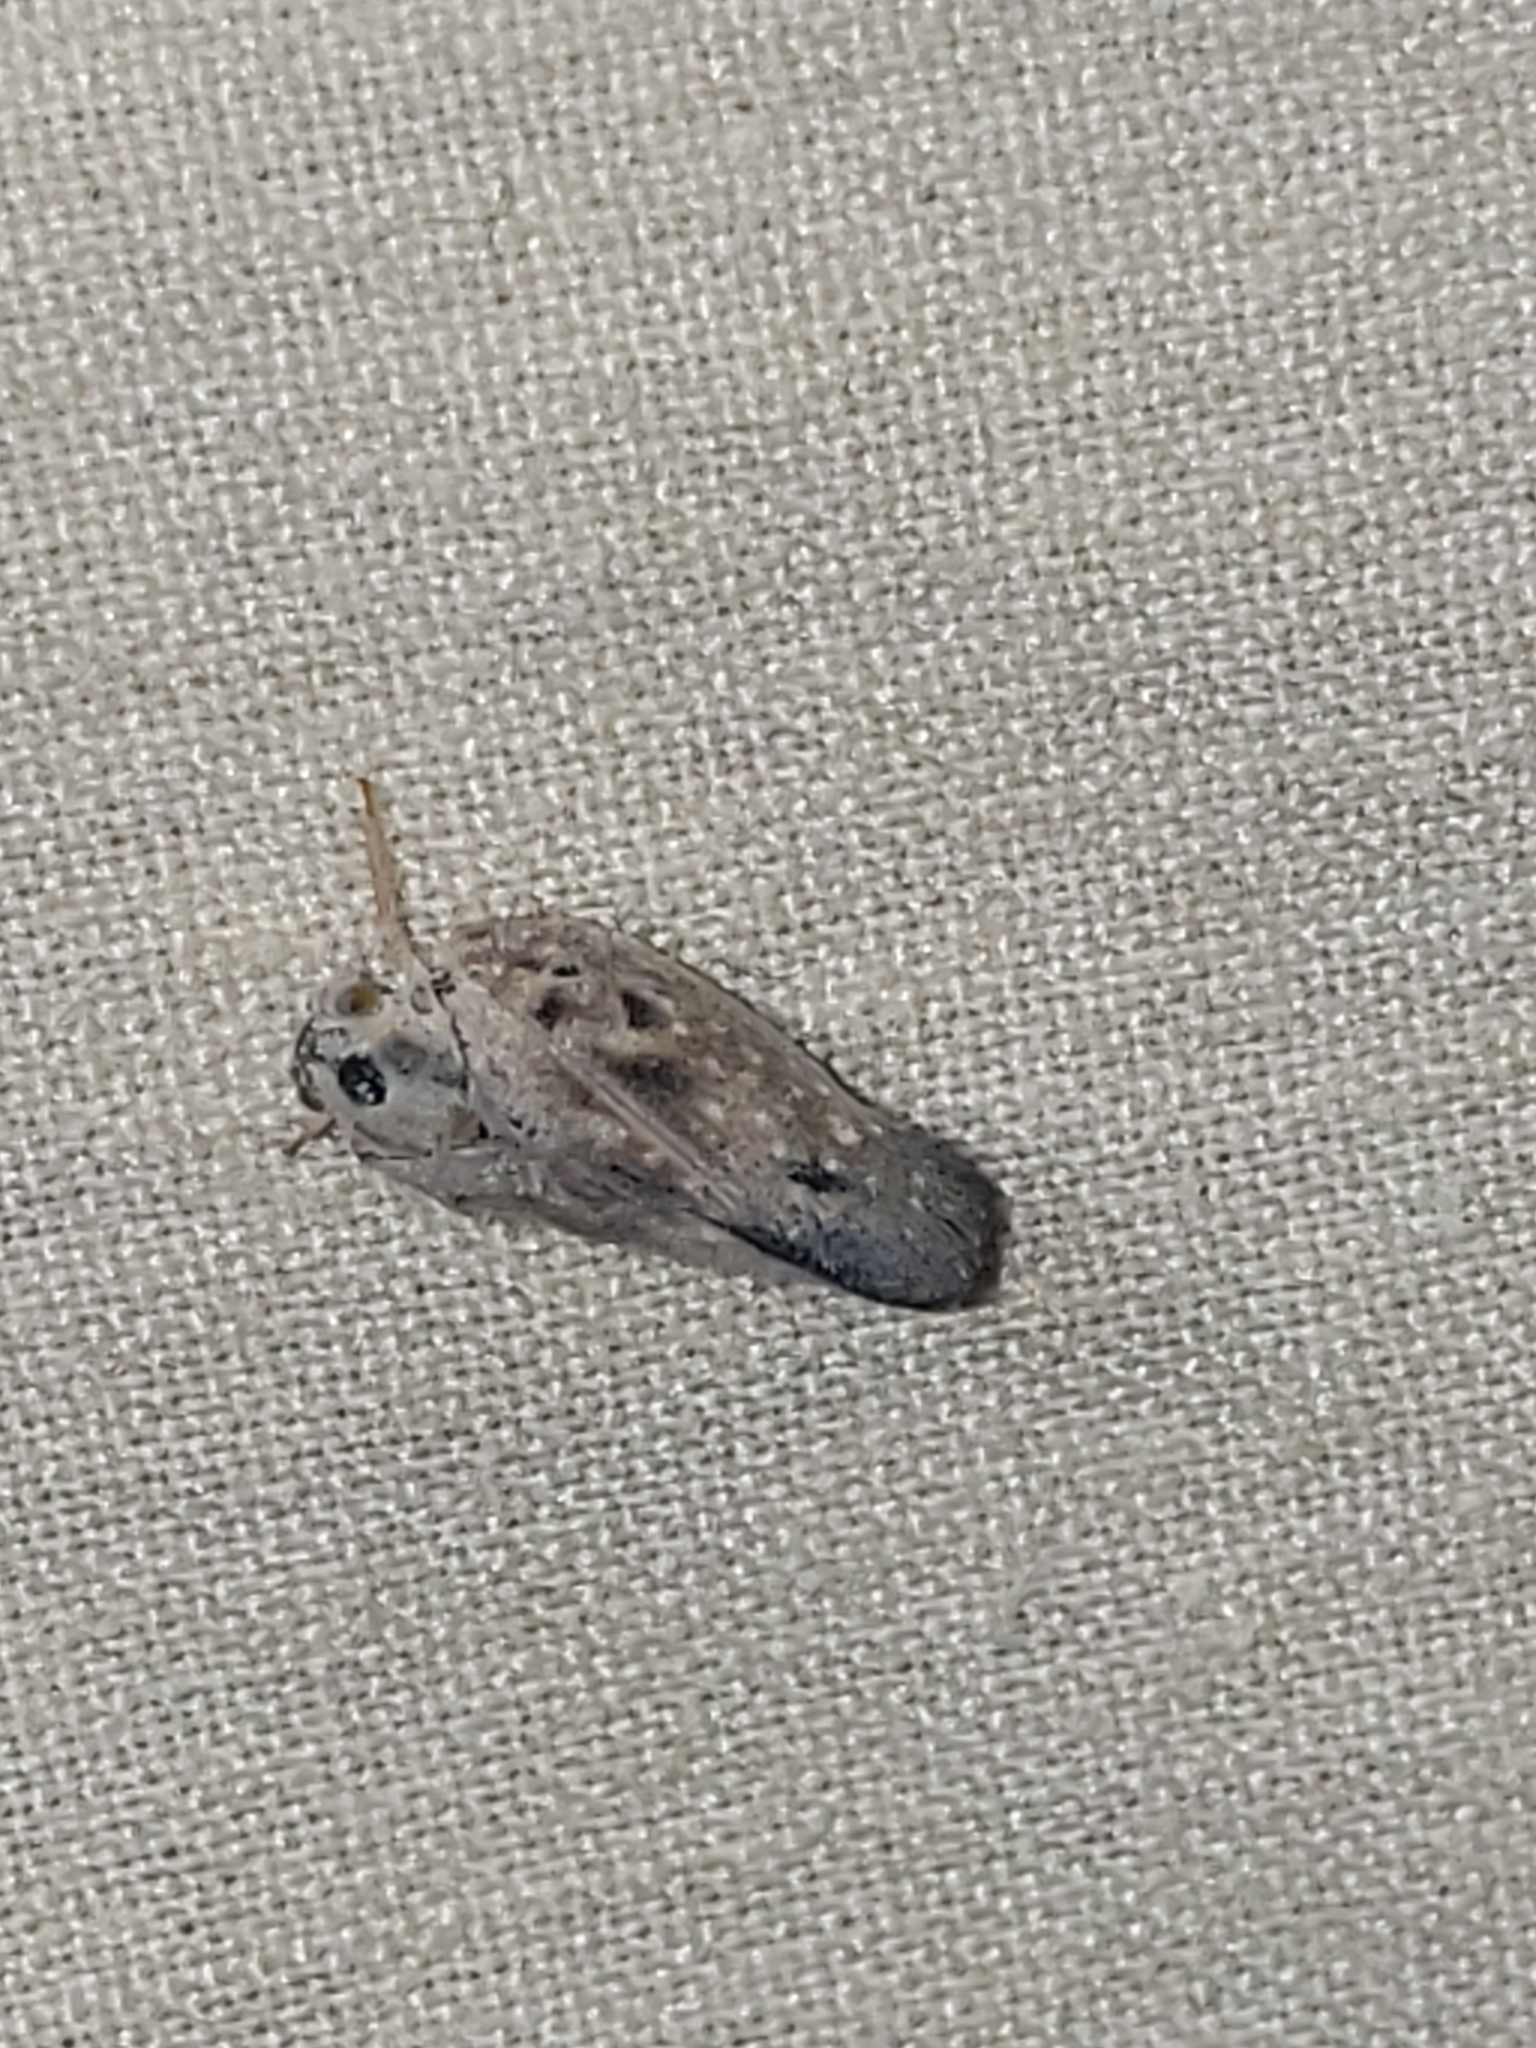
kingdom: Animalia
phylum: Arthropoda
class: Insecta
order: Hemiptera
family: Flatidae
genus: Metcalfa
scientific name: Metcalfa pruinosa
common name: Citrus flatid planthopper
